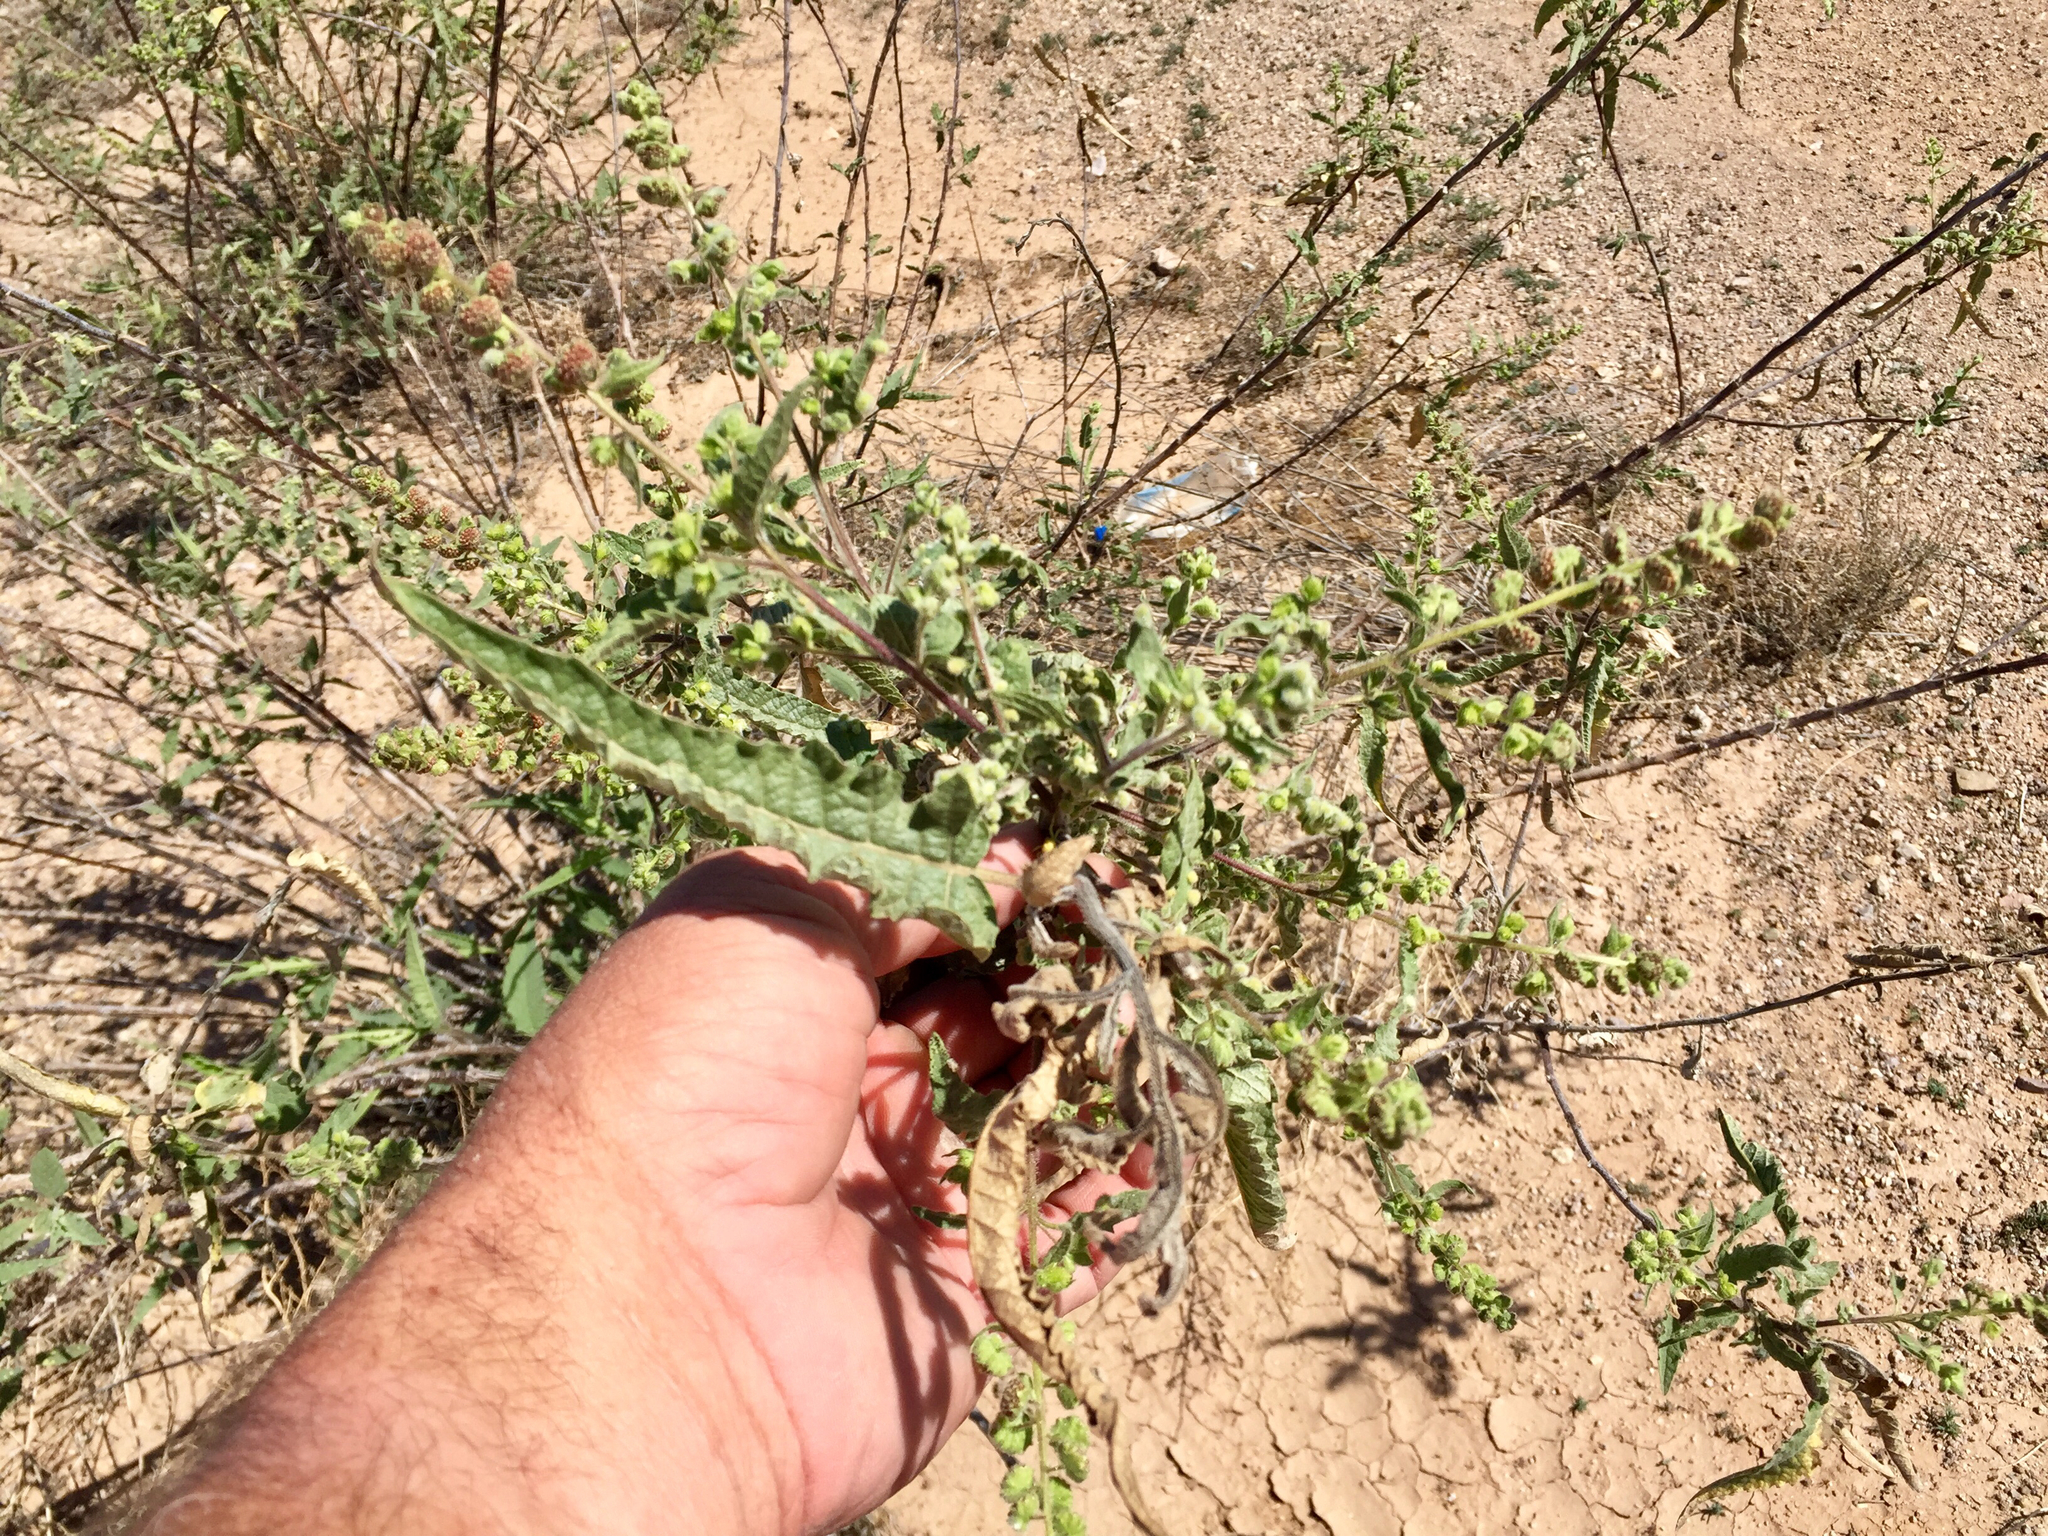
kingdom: Plantae
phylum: Tracheophyta
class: Magnoliopsida
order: Asterales
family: Asteraceae
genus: Ambrosia
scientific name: Ambrosia ambrosioides
